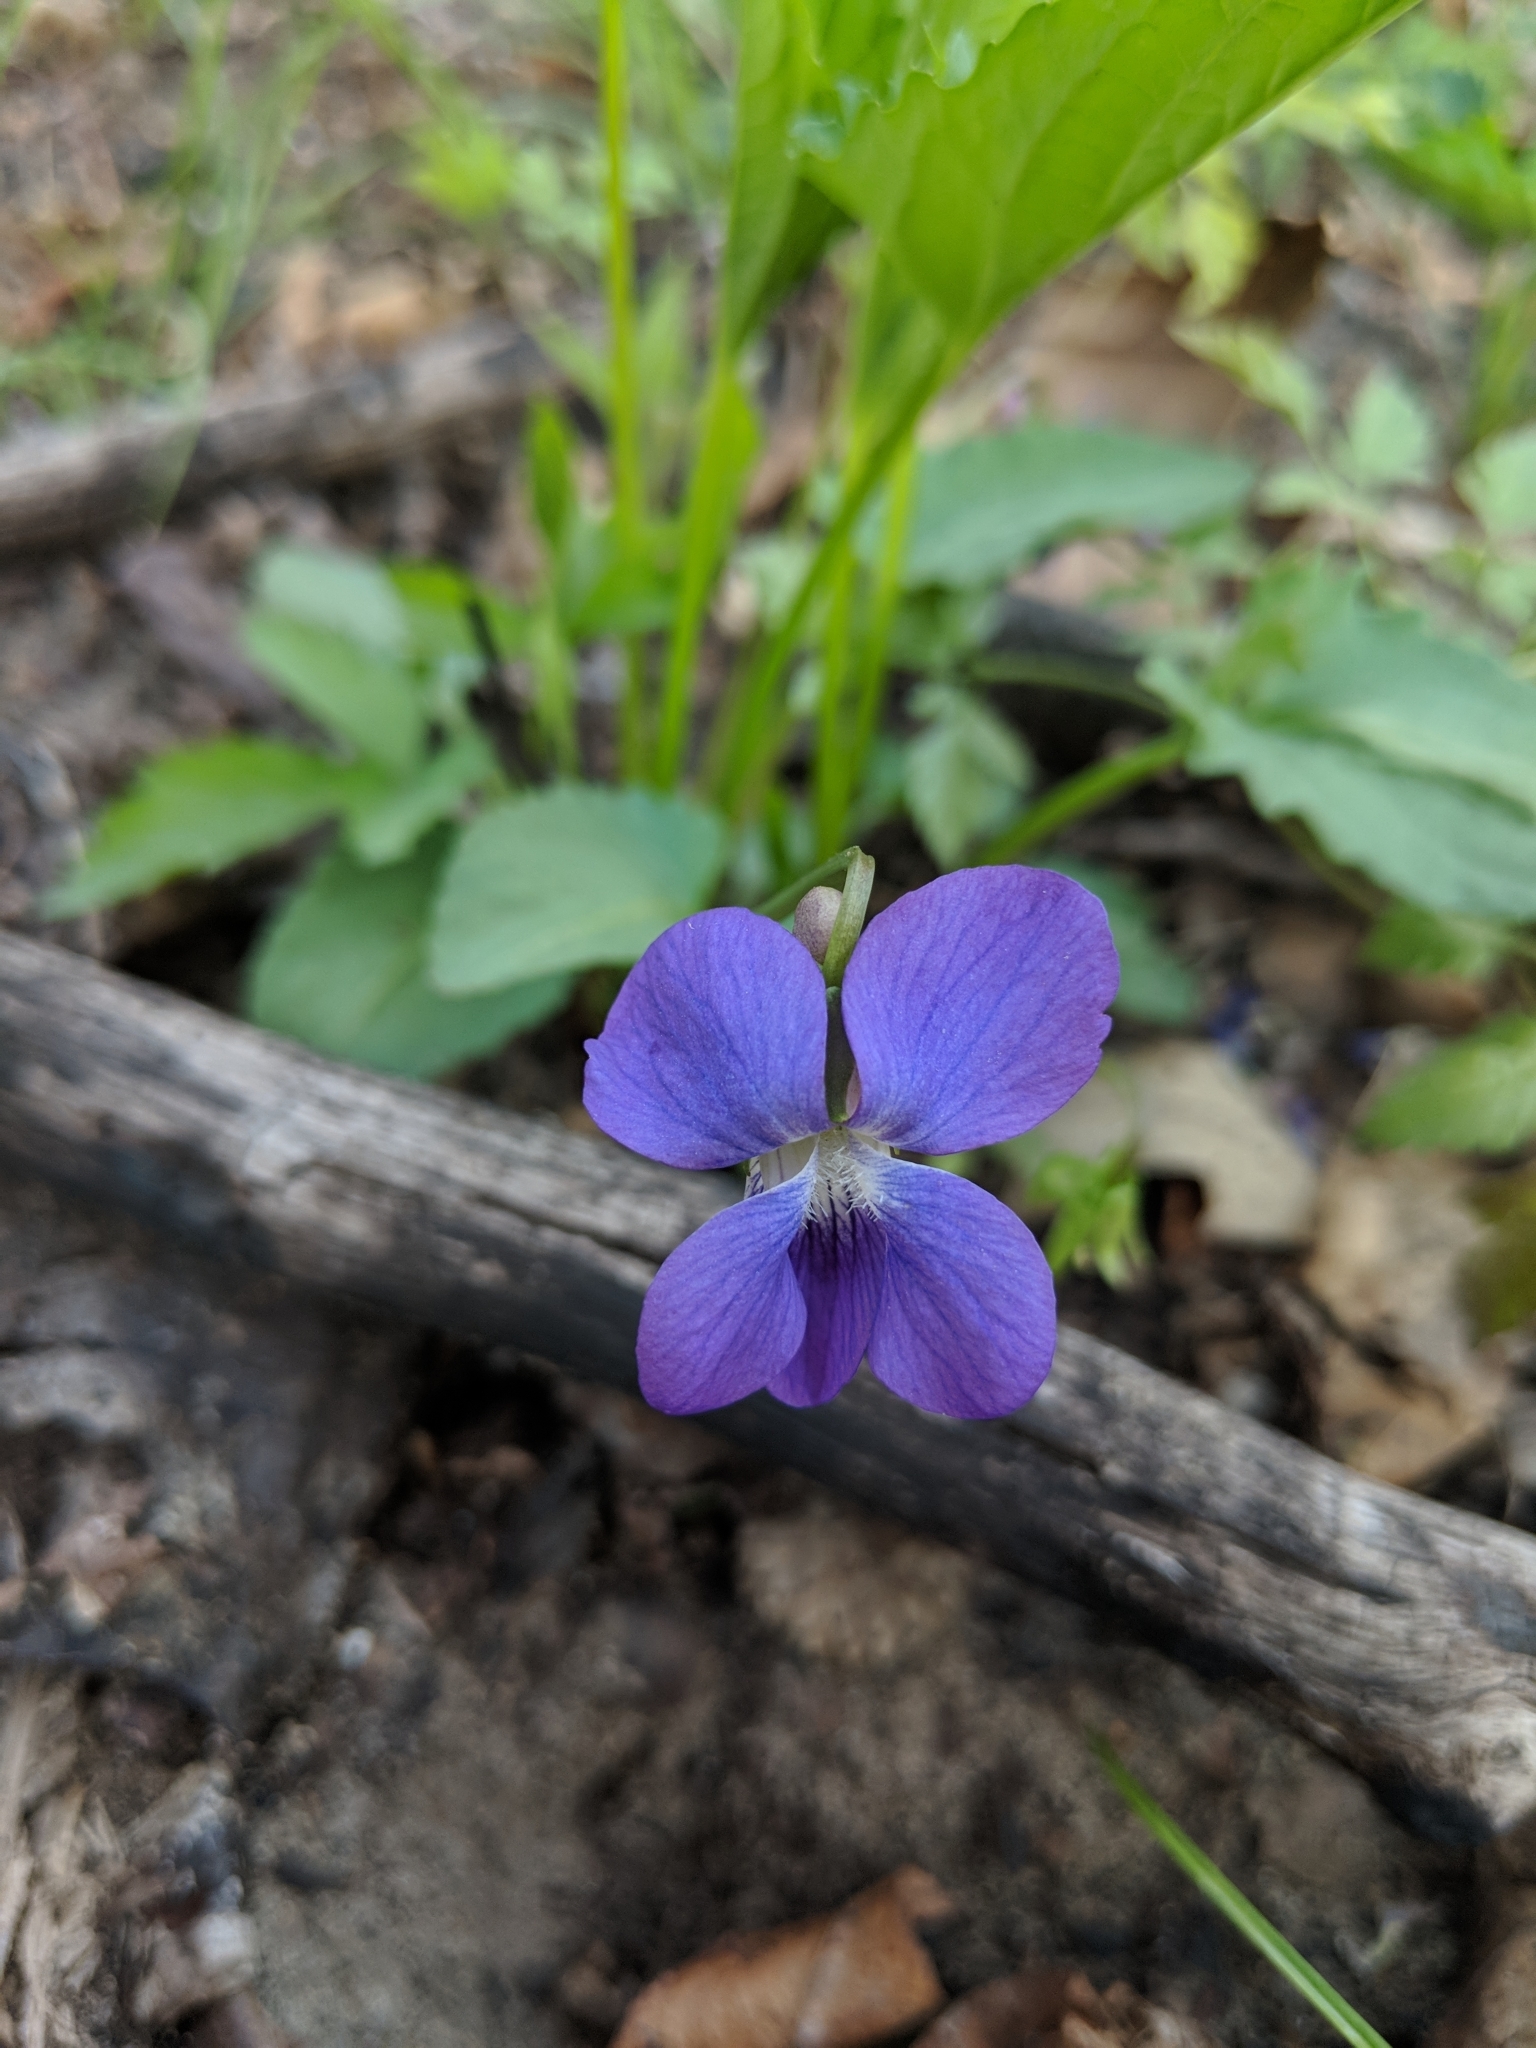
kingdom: Plantae
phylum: Tracheophyta
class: Magnoliopsida
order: Malpighiales
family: Violaceae
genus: Viola
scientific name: Viola sagittata
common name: Arrowhead violet
